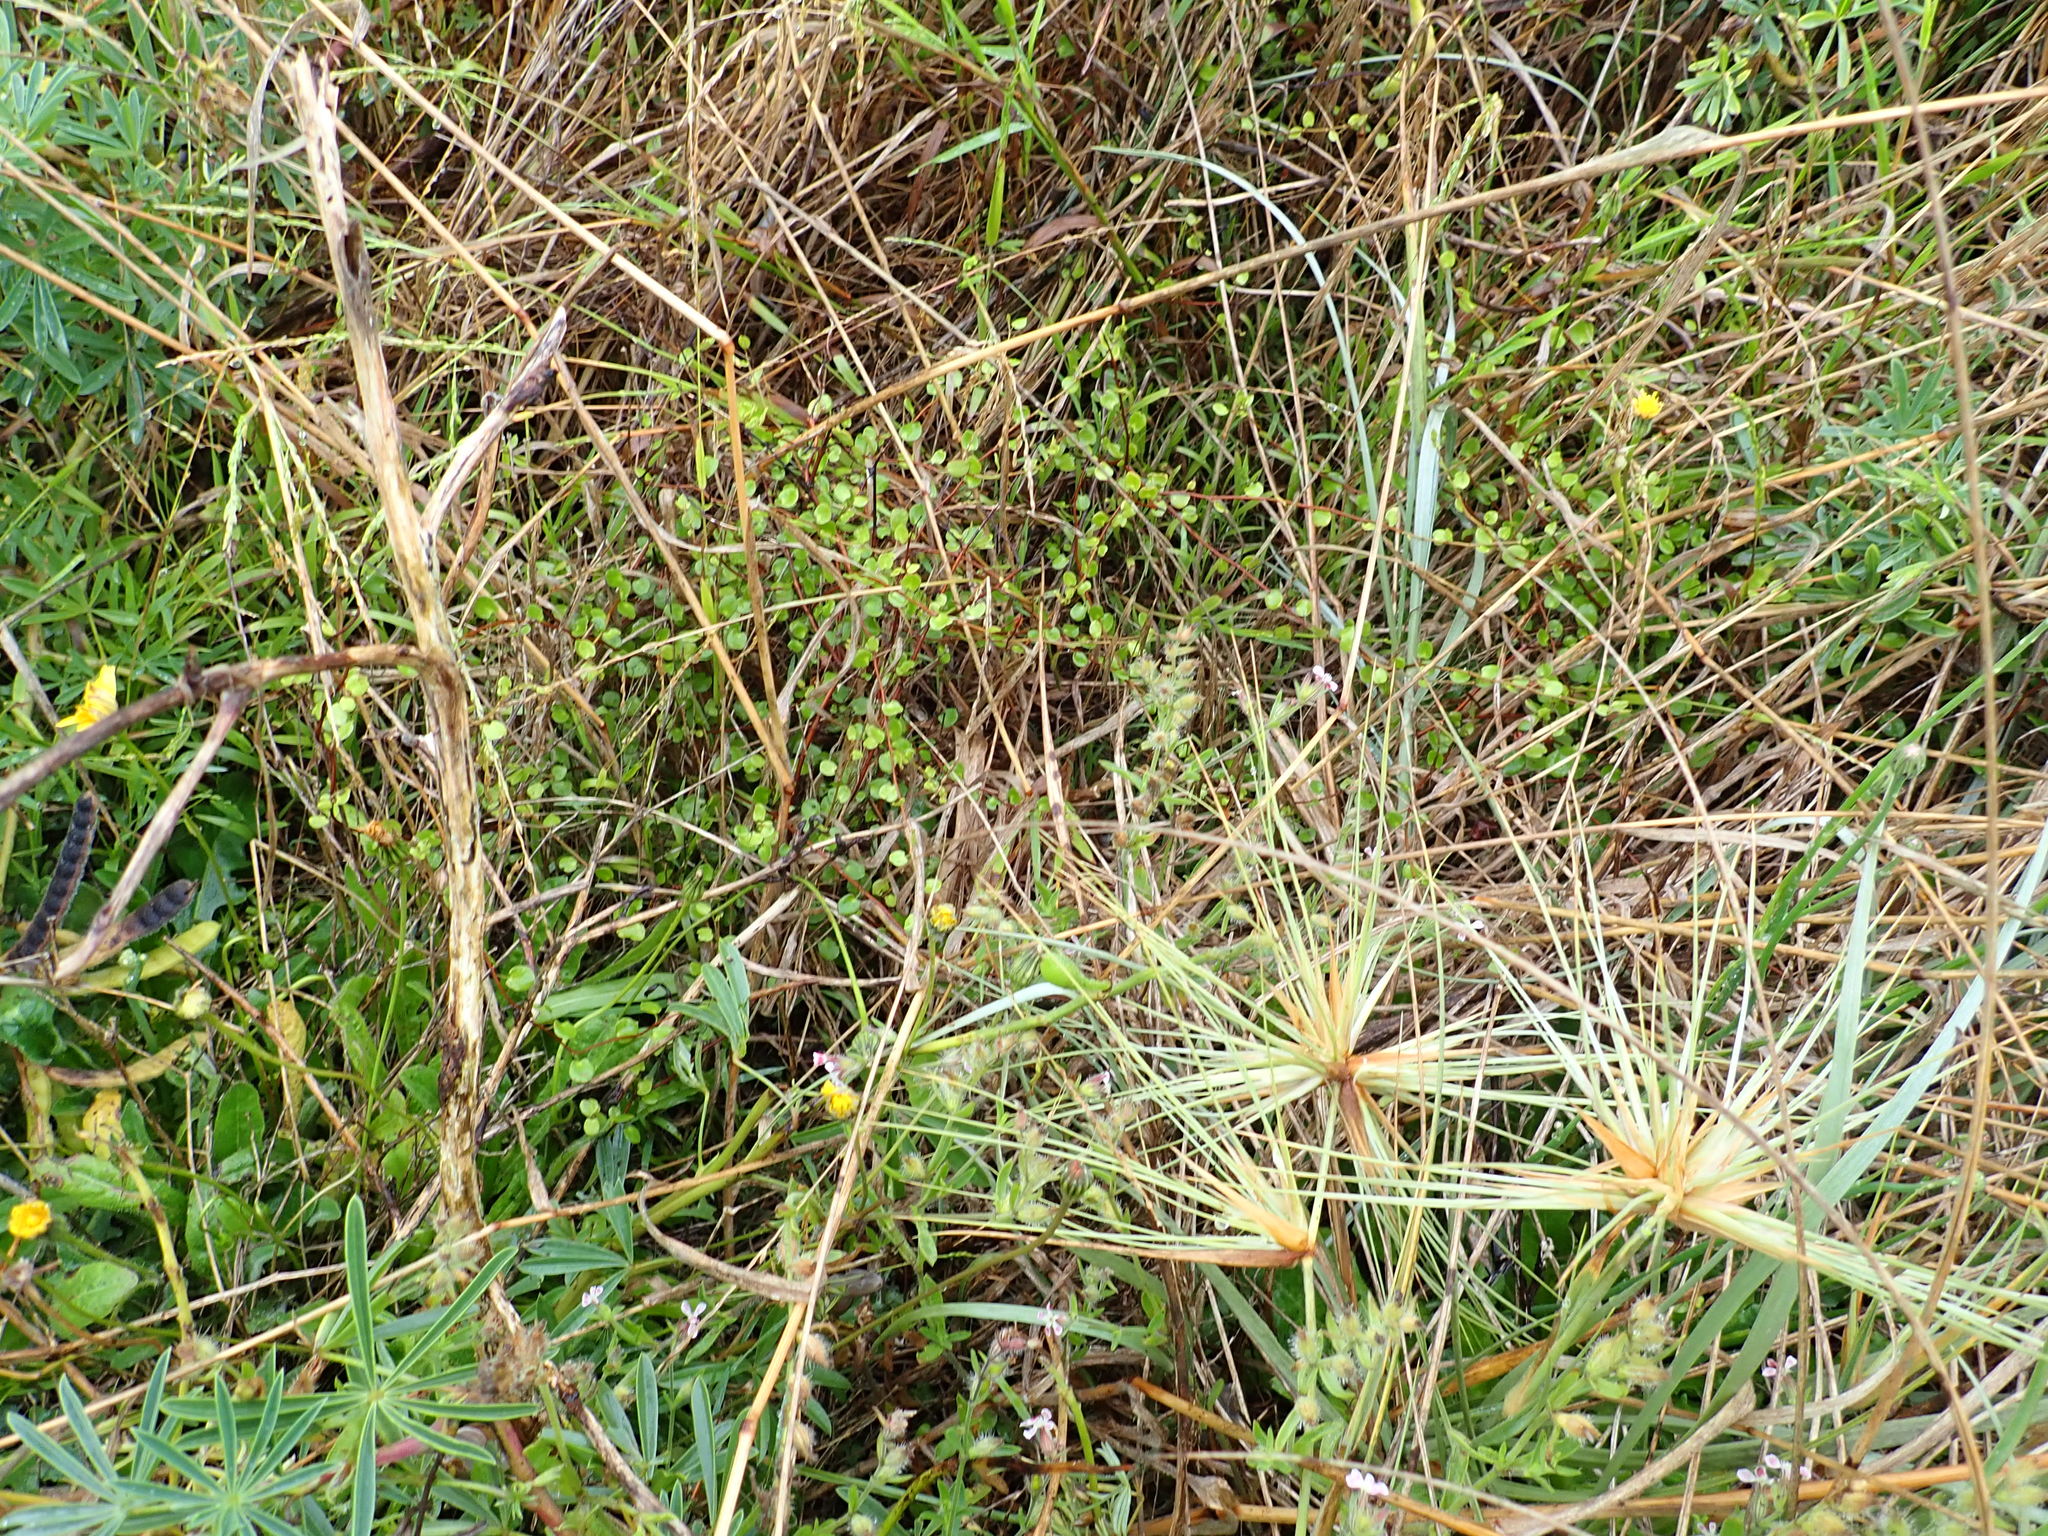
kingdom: Plantae
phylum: Tracheophyta
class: Magnoliopsida
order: Caryophyllales
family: Polygonaceae
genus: Muehlenbeckia
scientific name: Muehlenbeckia complexa
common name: Wireplant
